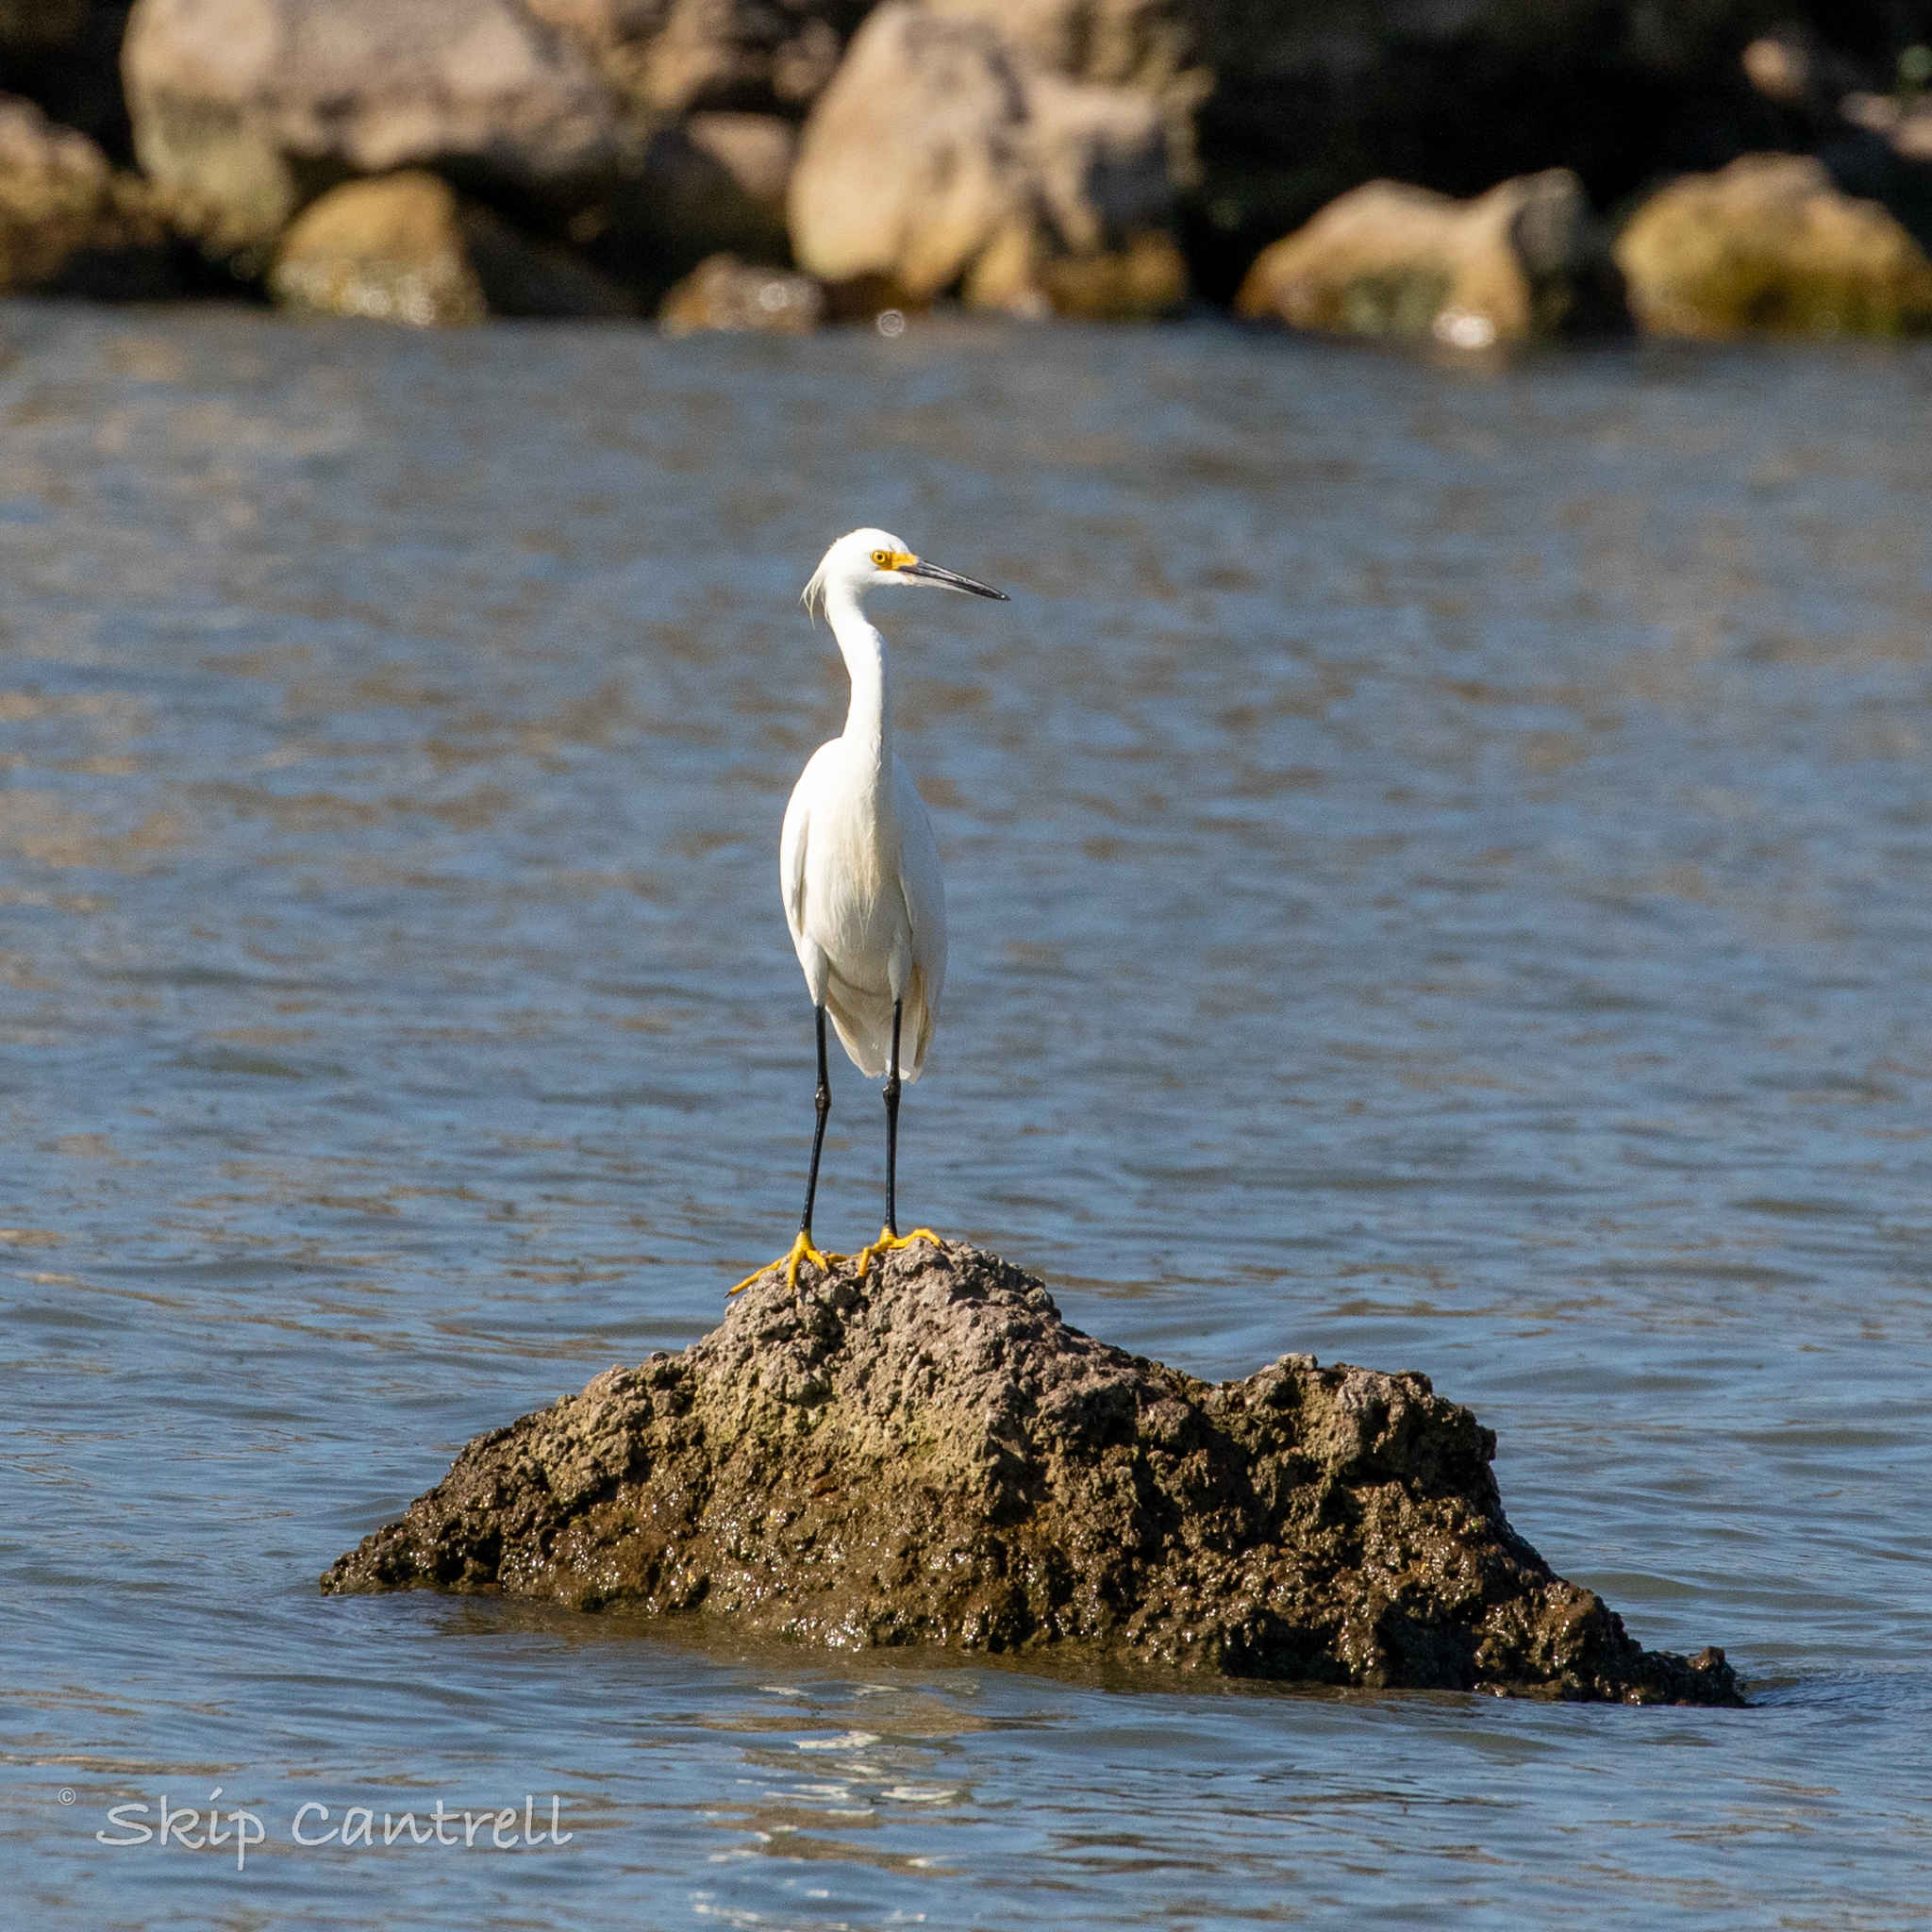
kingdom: Animalia
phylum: Chordata
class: Aves
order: Pelecaniformes
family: Ardeidae
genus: Egretta
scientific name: Egretta thula
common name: Snowy egret
